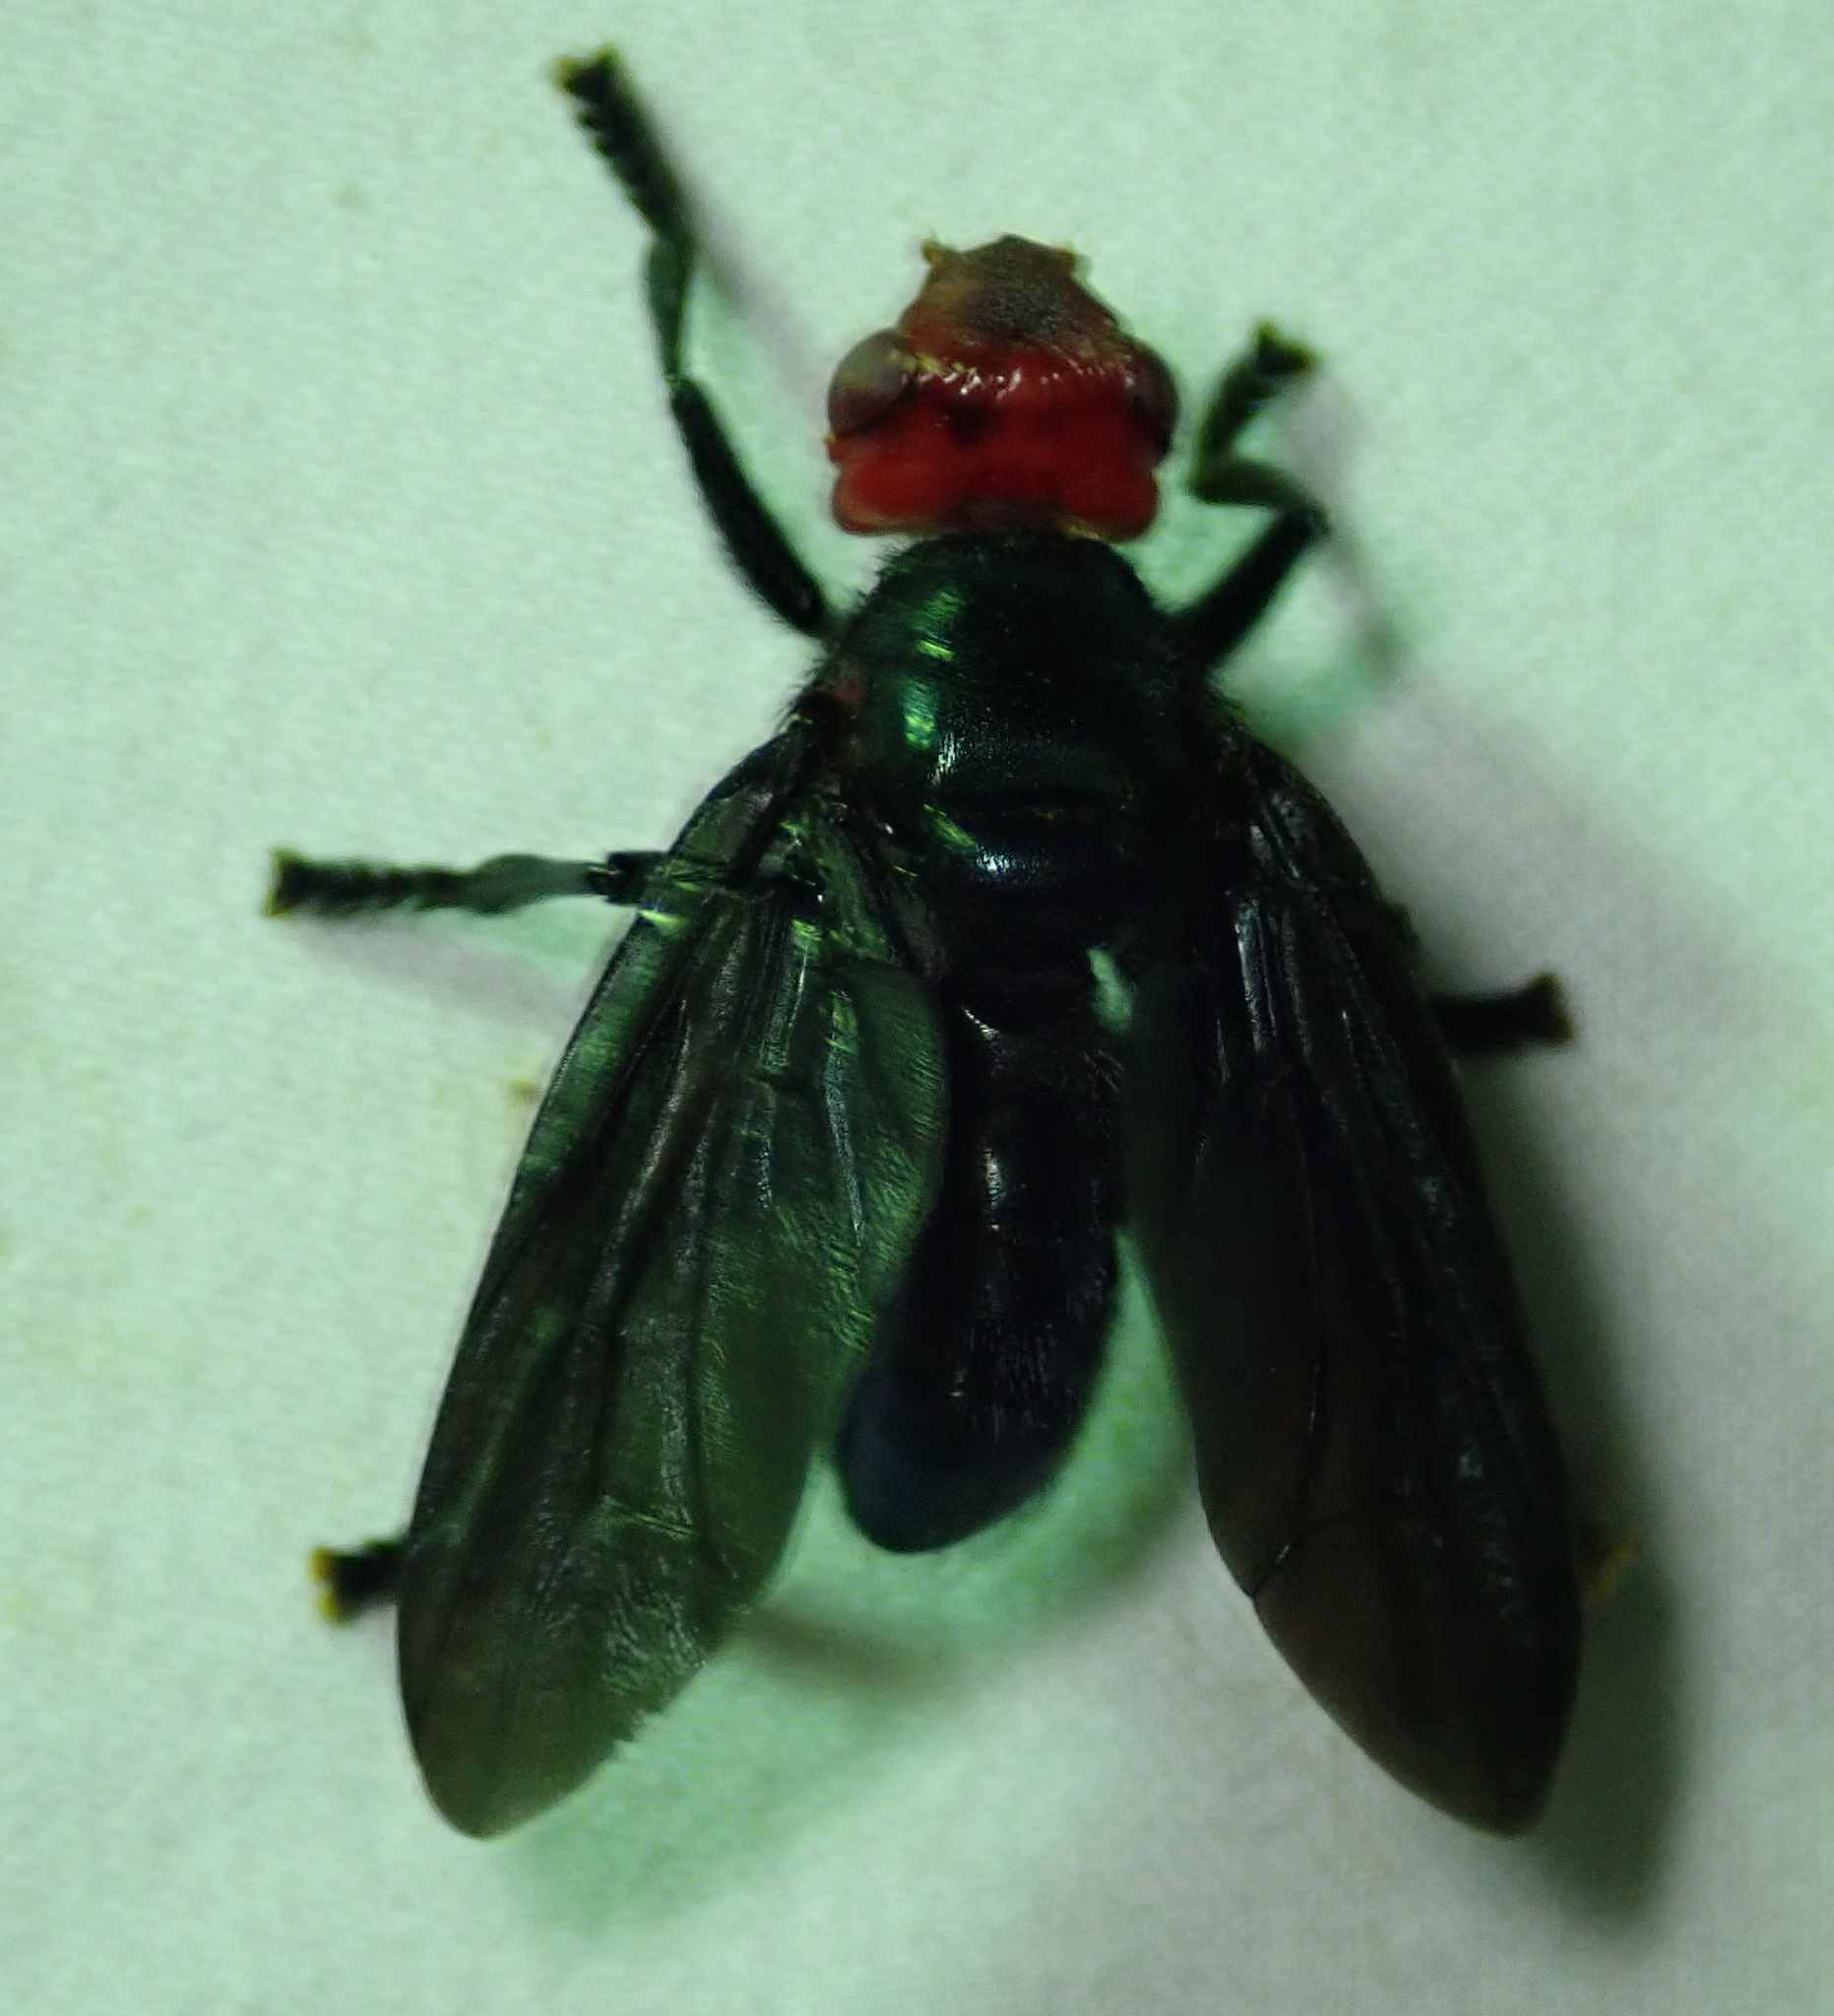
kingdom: Animalia
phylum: Arthropoda
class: Insecta
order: Diptera
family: Platystomatidae
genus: Bromophila
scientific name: Bromophila caffra
